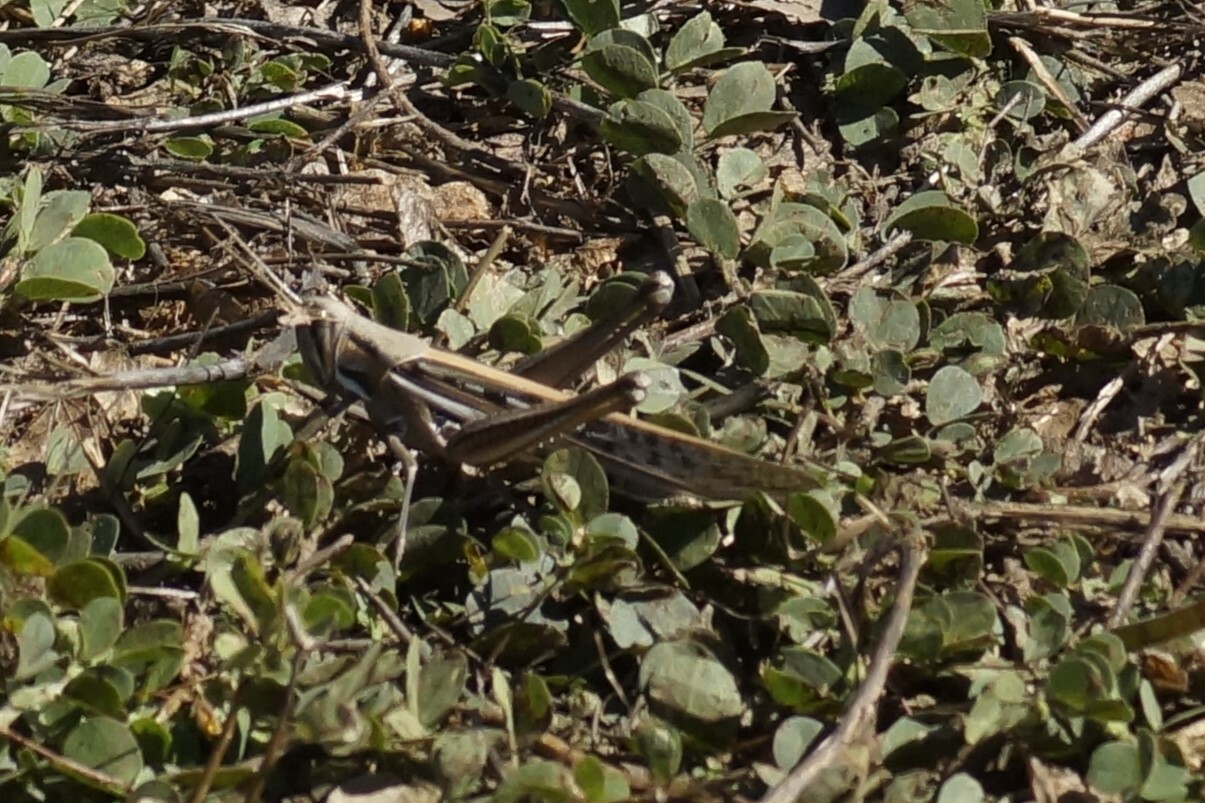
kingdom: Animalia
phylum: Arthropoda
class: Insecta
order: Orthoptera
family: Acrididae
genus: Austracris
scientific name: Austracris guttulosa
